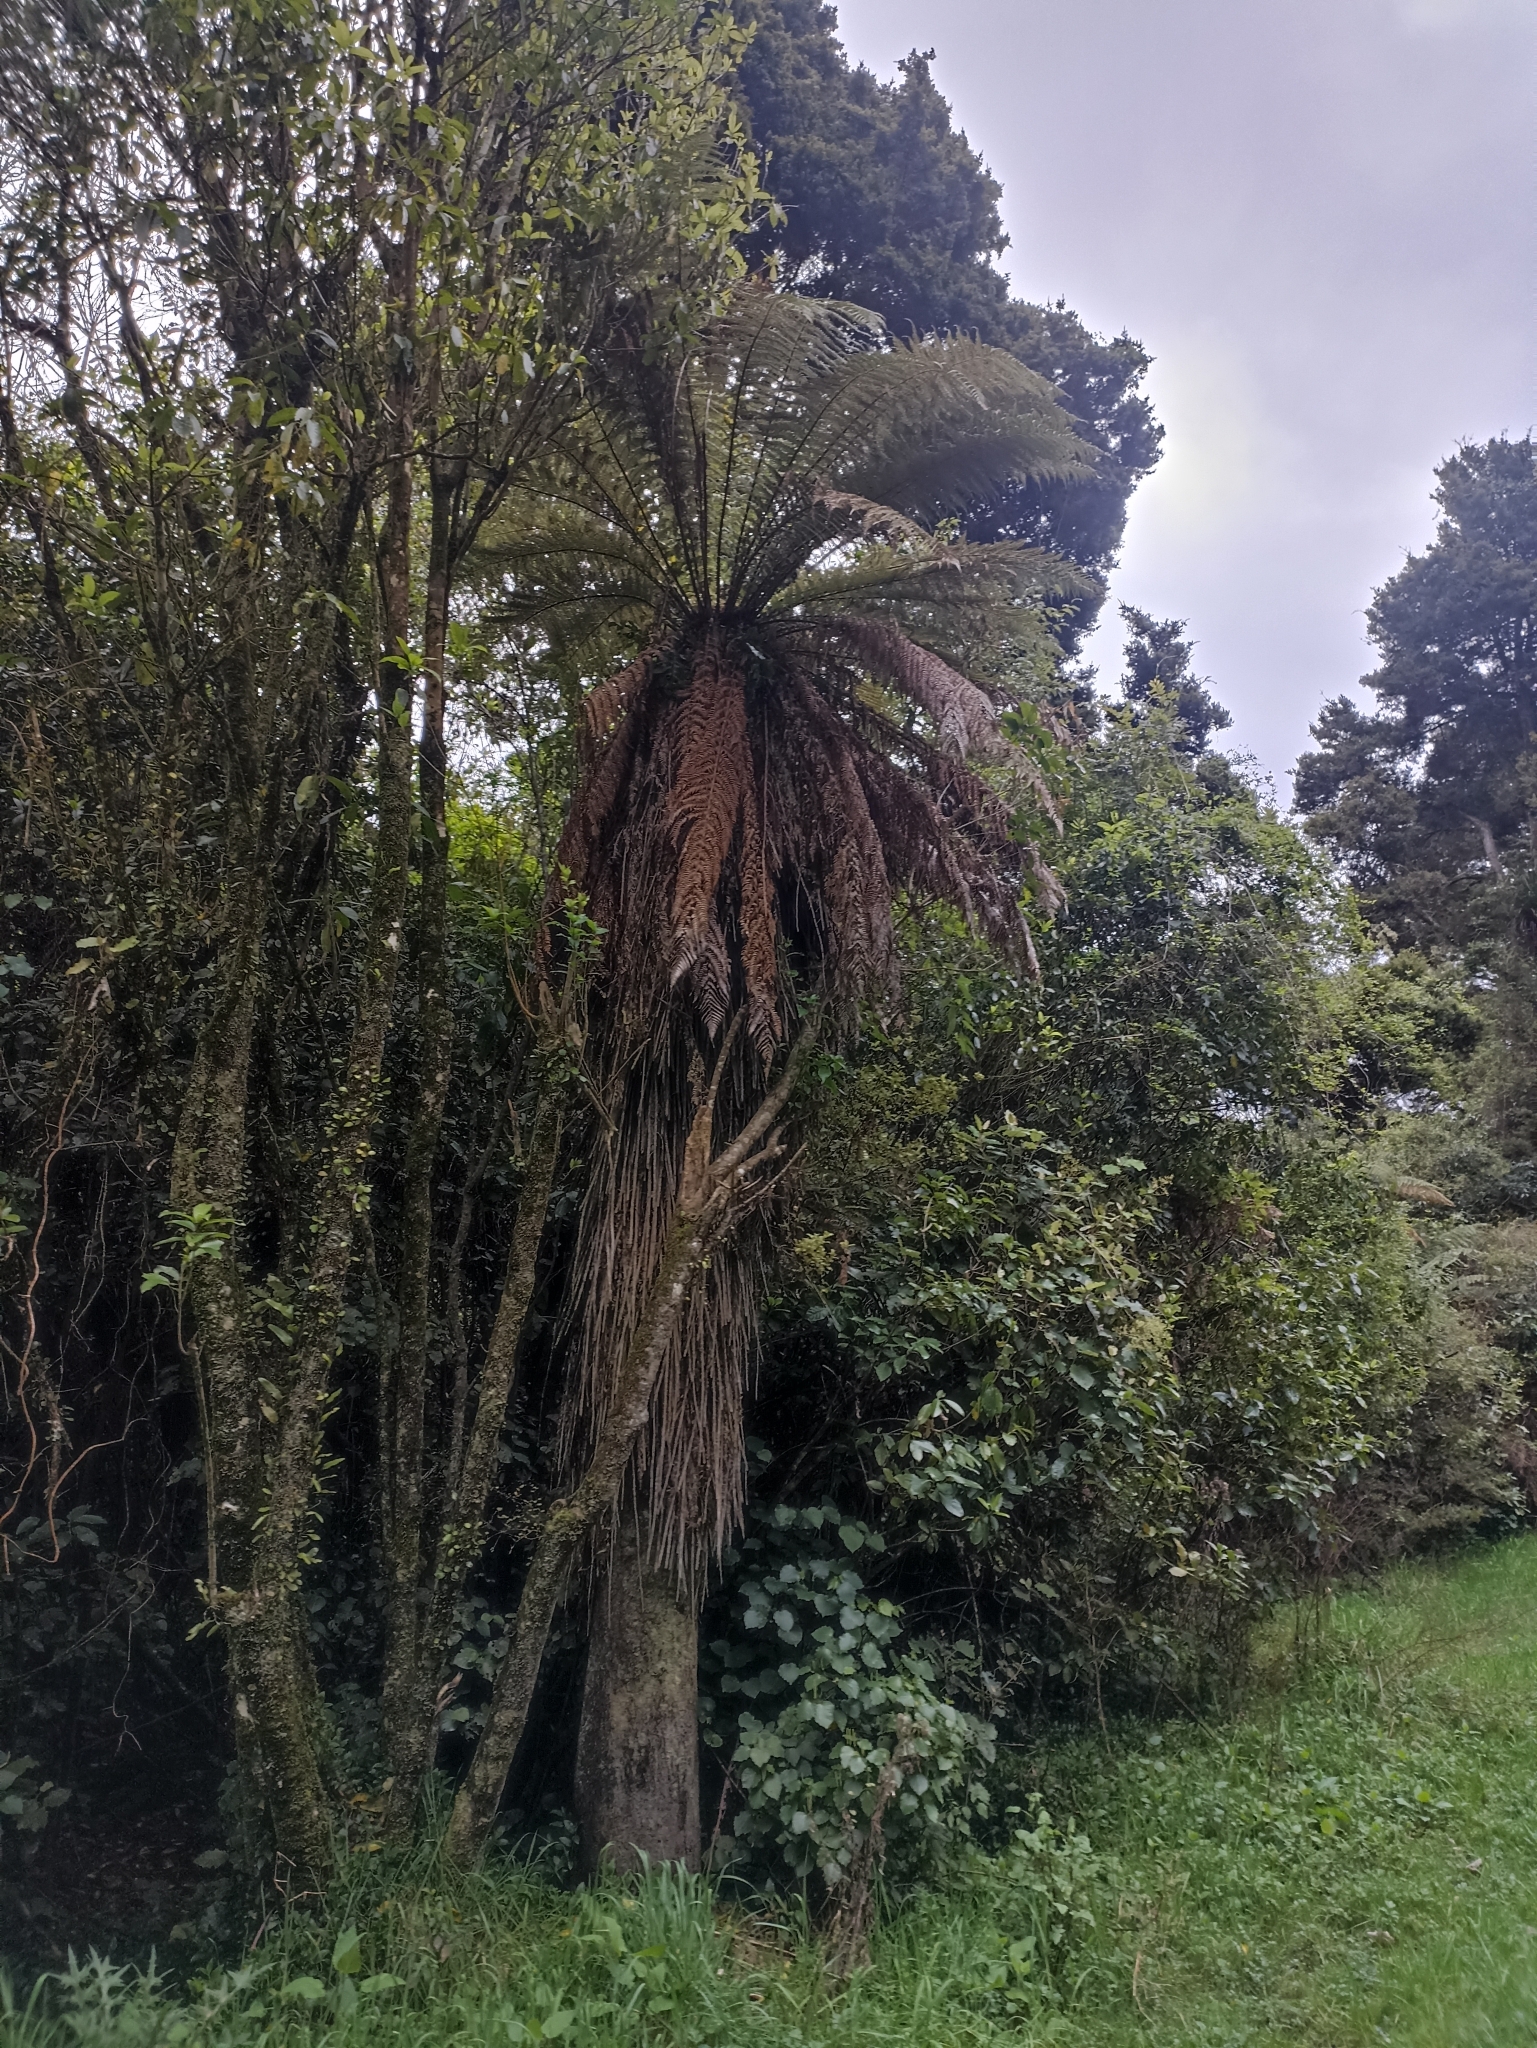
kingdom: Plantae
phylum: Tracheophyta
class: Polypodiopsida
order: Cyatheales
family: Dicksoniaceae
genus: Dicksonia
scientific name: Dicksonia fibrosa
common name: Golden tree fern
